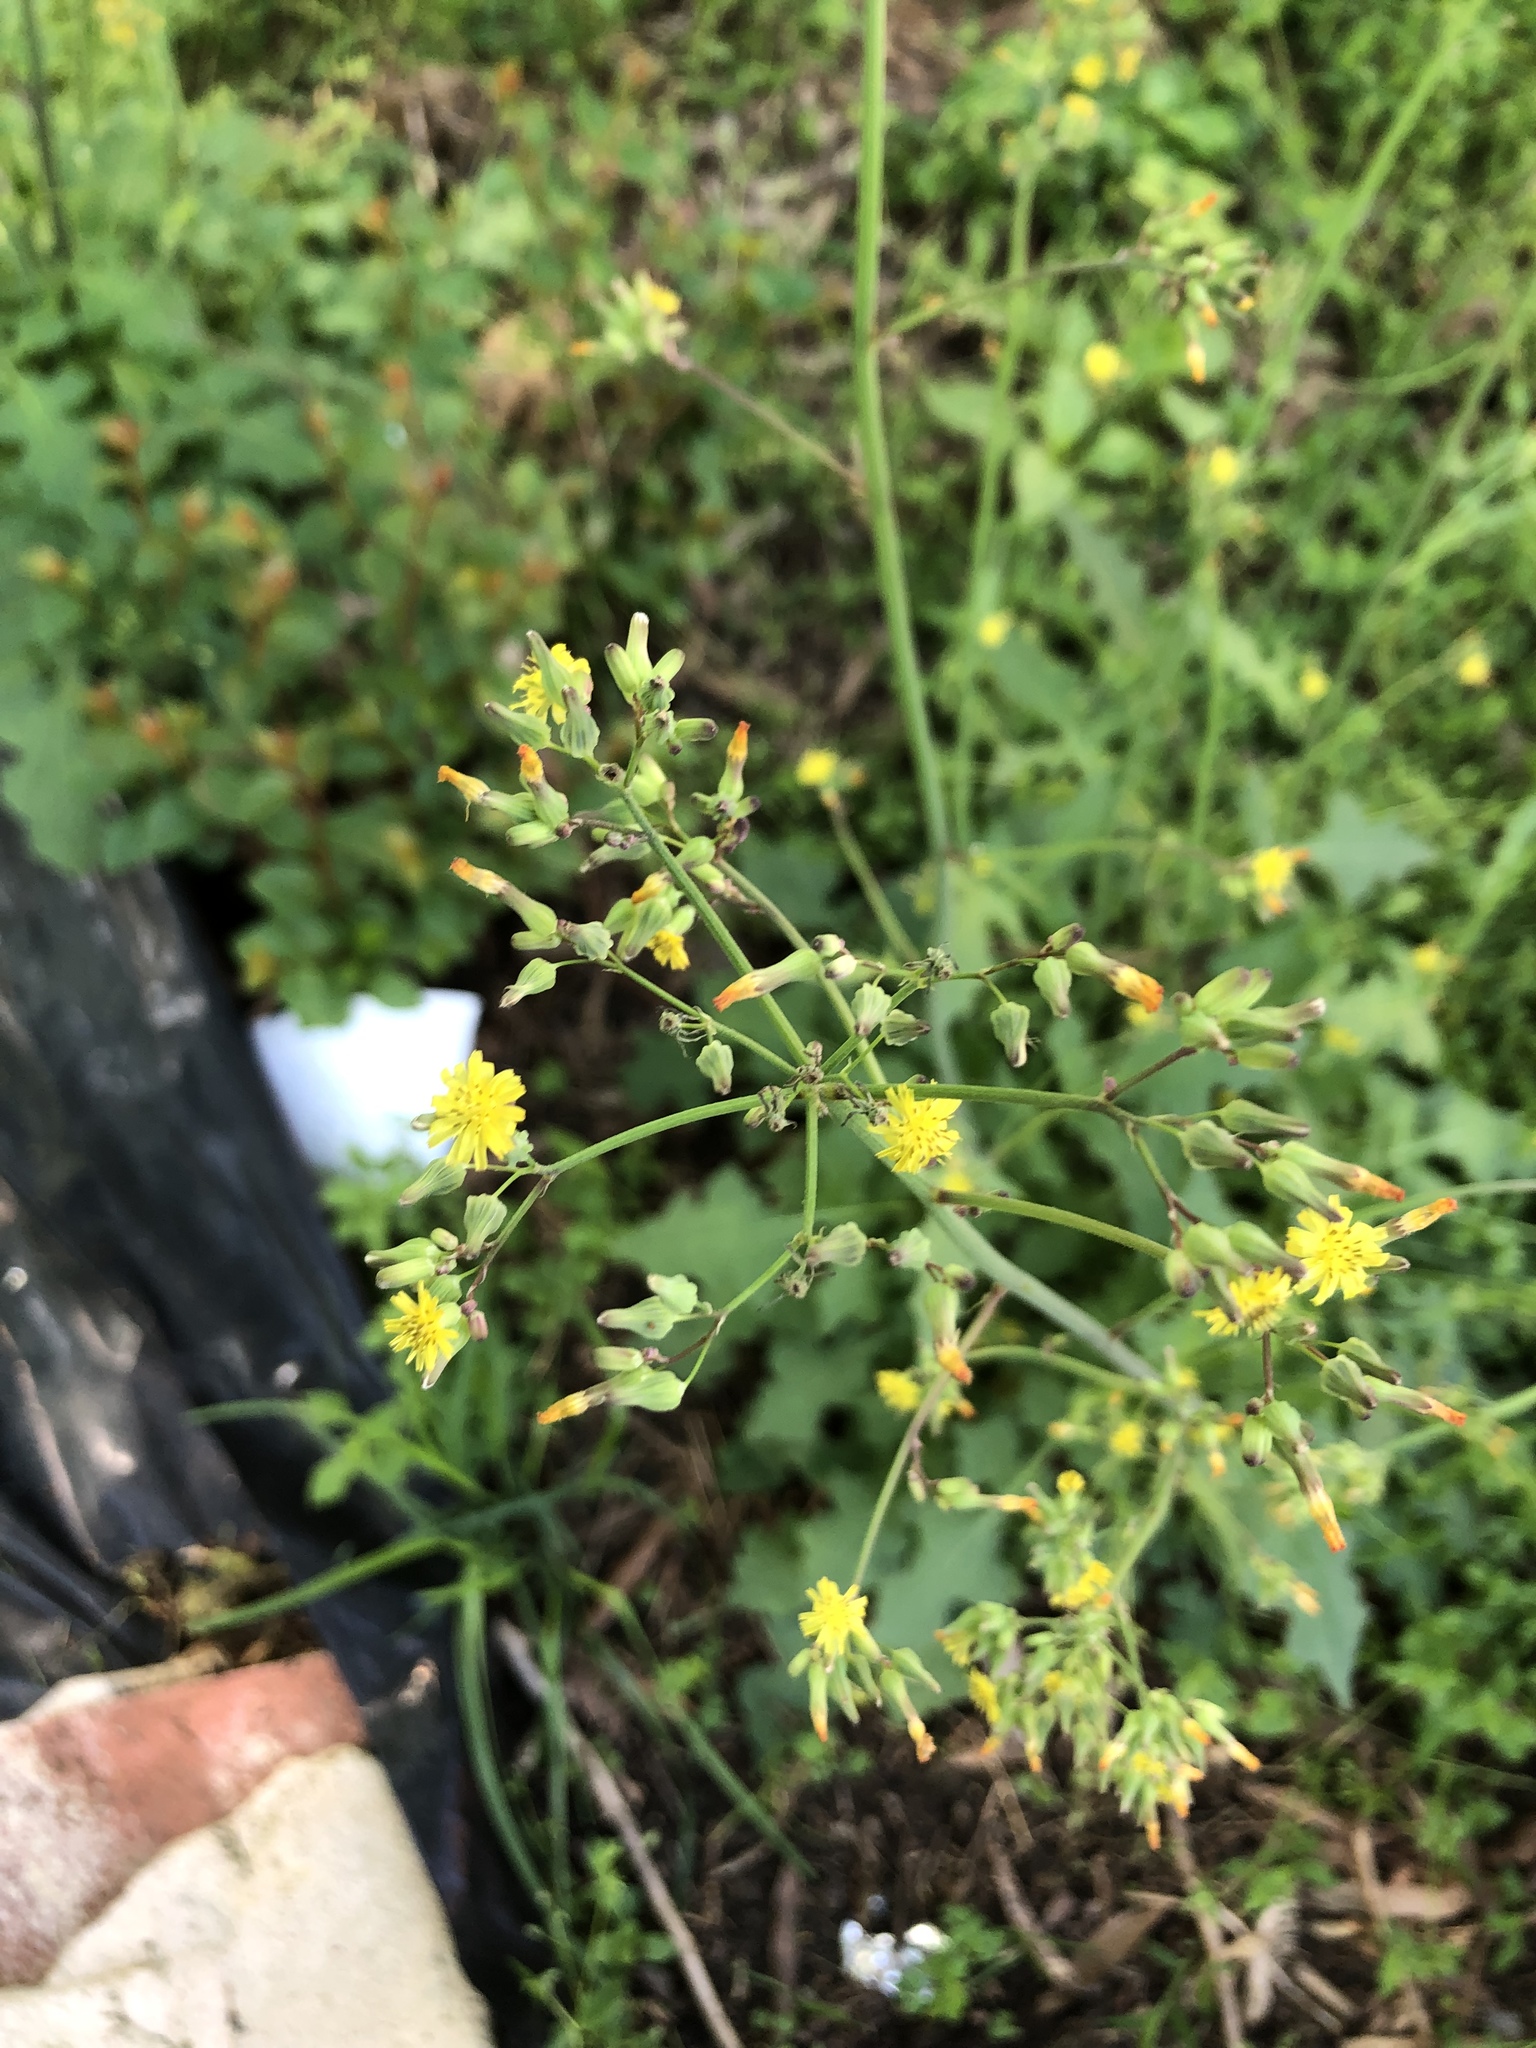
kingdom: Plantae
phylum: Tracheophyta
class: Magnoliopsida
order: Asterales
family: Asteraceae
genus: Youngia
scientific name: Youngia japonica
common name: Oriental false hawksbeard
